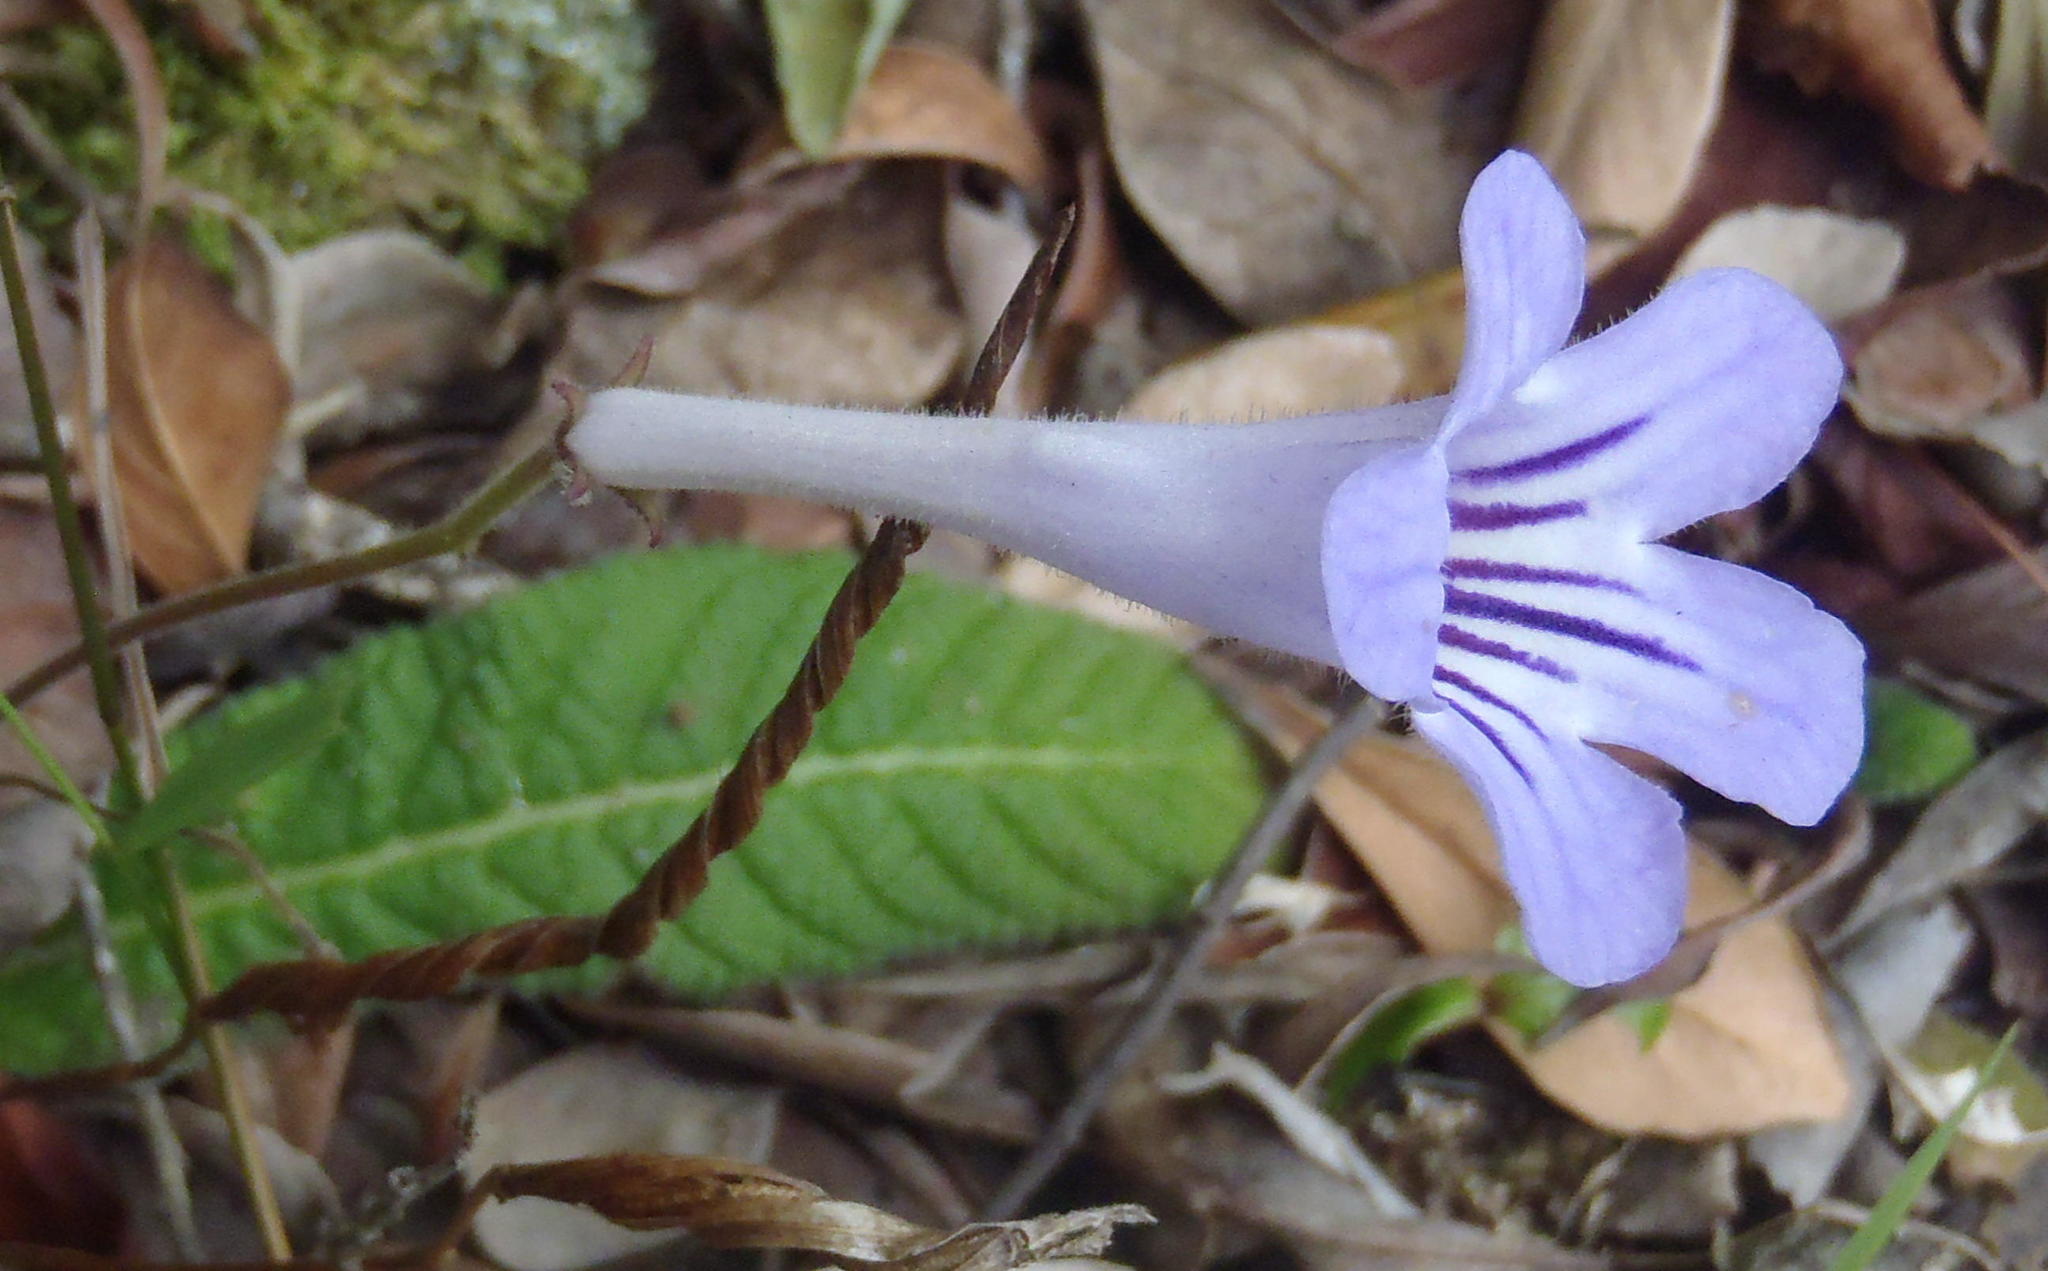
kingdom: Plantae
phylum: Tracheophyta
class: Magnoliopsida
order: Lamiales
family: Gesneriaceae
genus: Streptocarpus
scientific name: Streptocarpus rexii
